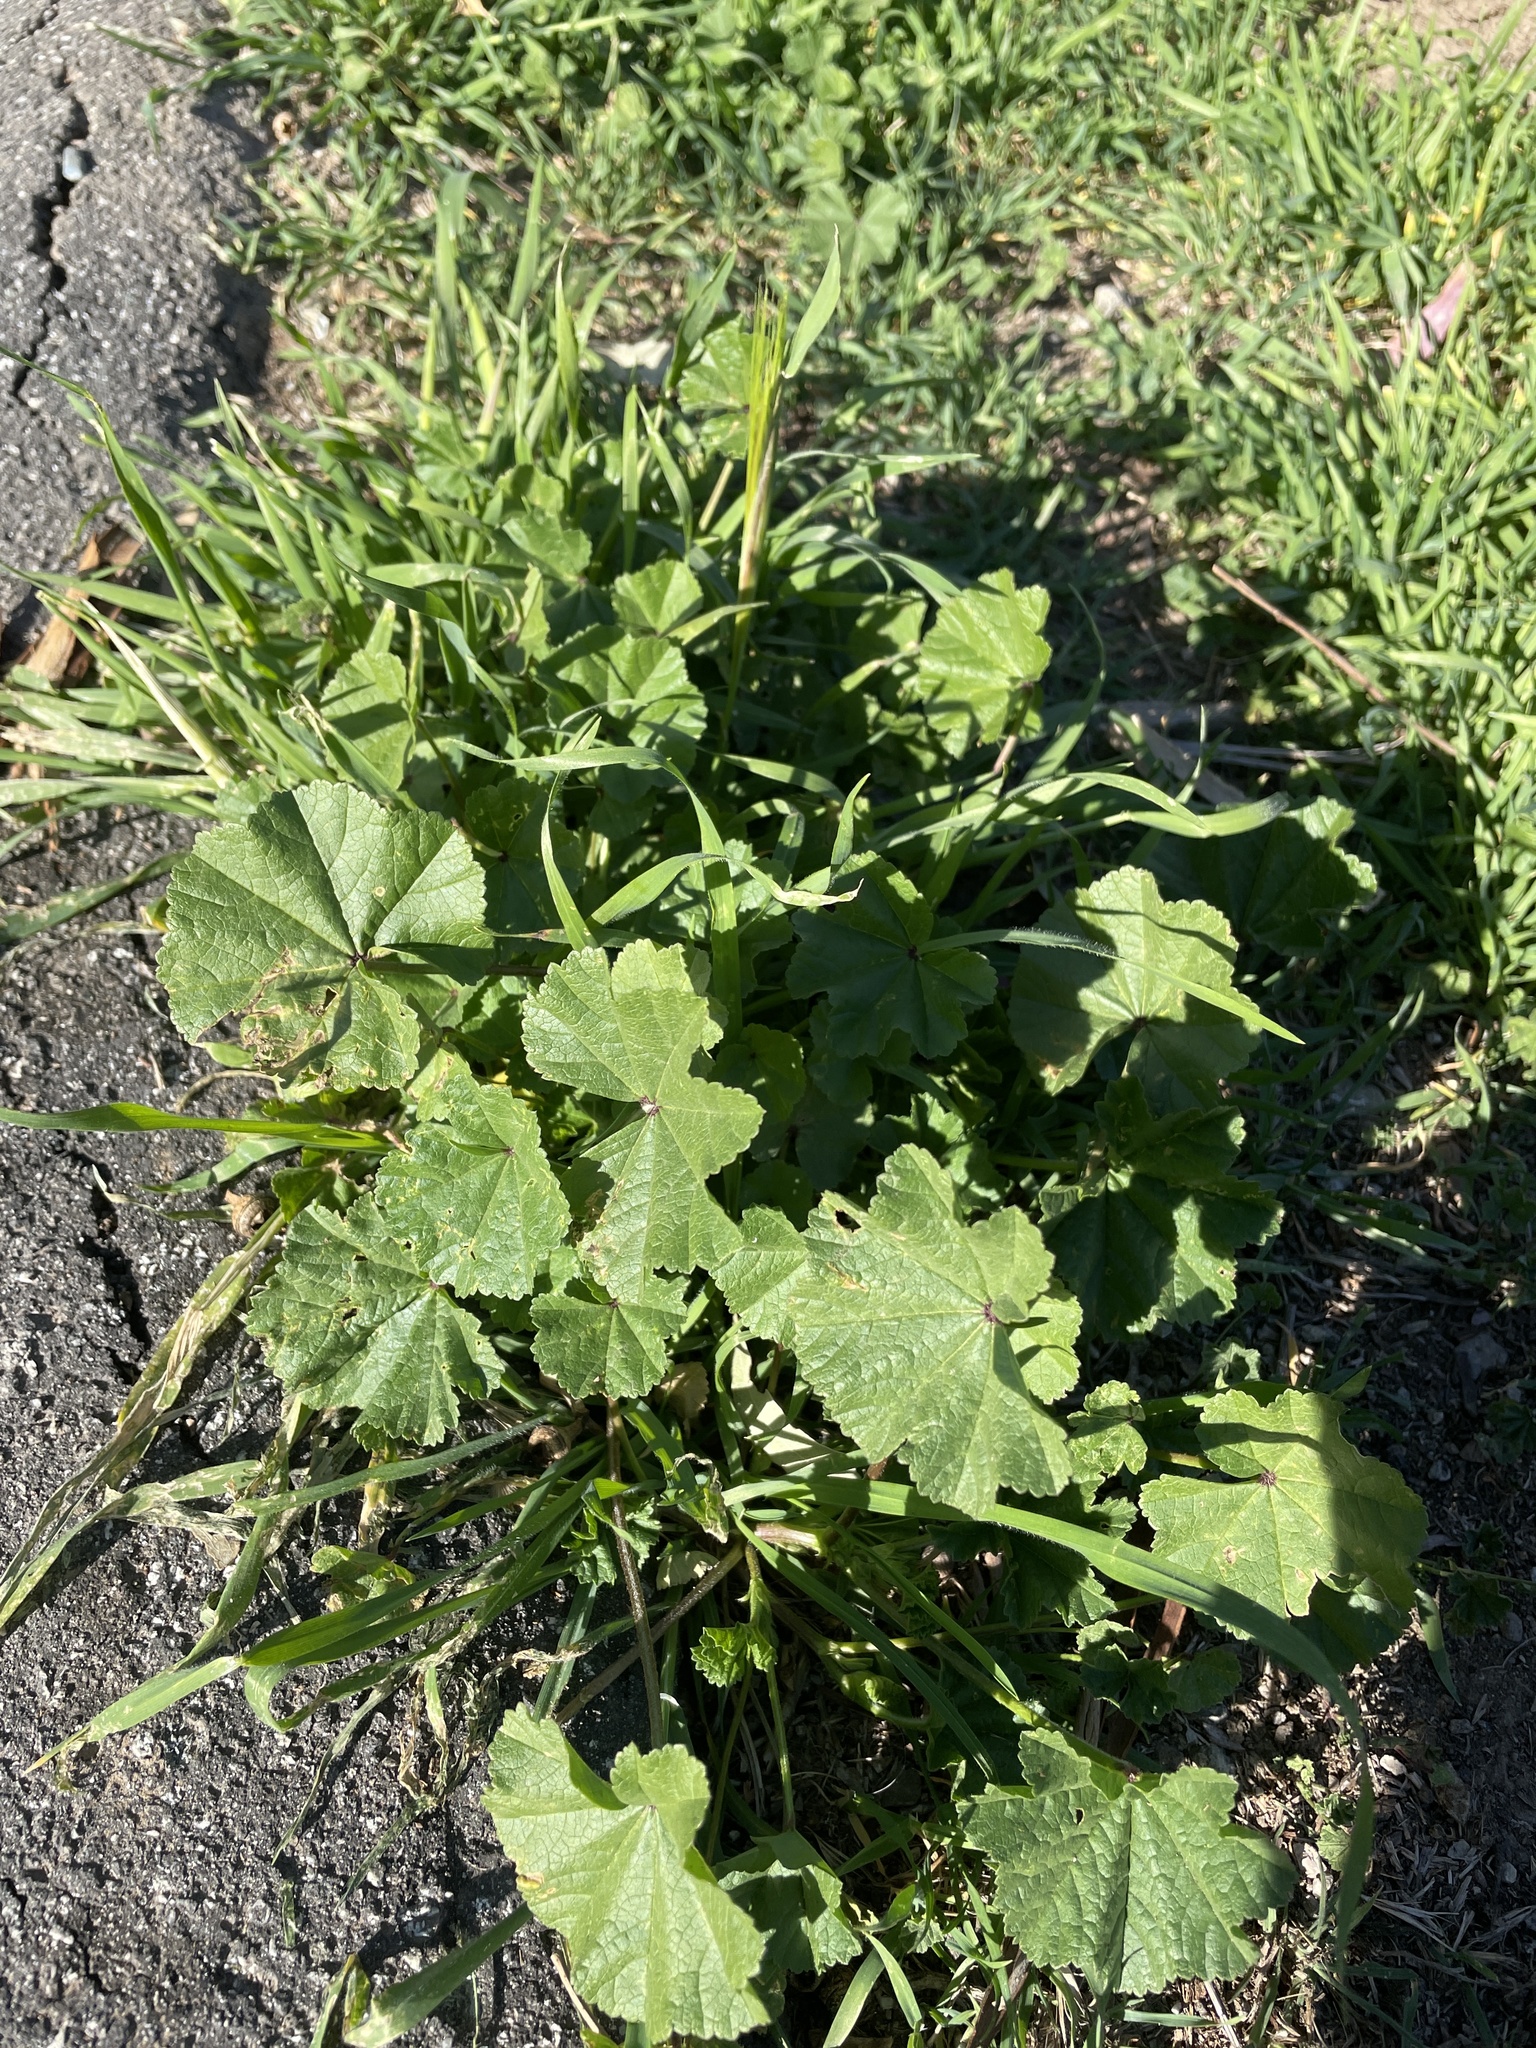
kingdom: Plantae
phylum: Tracheophyta
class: Magnoliopsida
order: Malvales
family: Malvaceae
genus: Malva
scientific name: Malva
